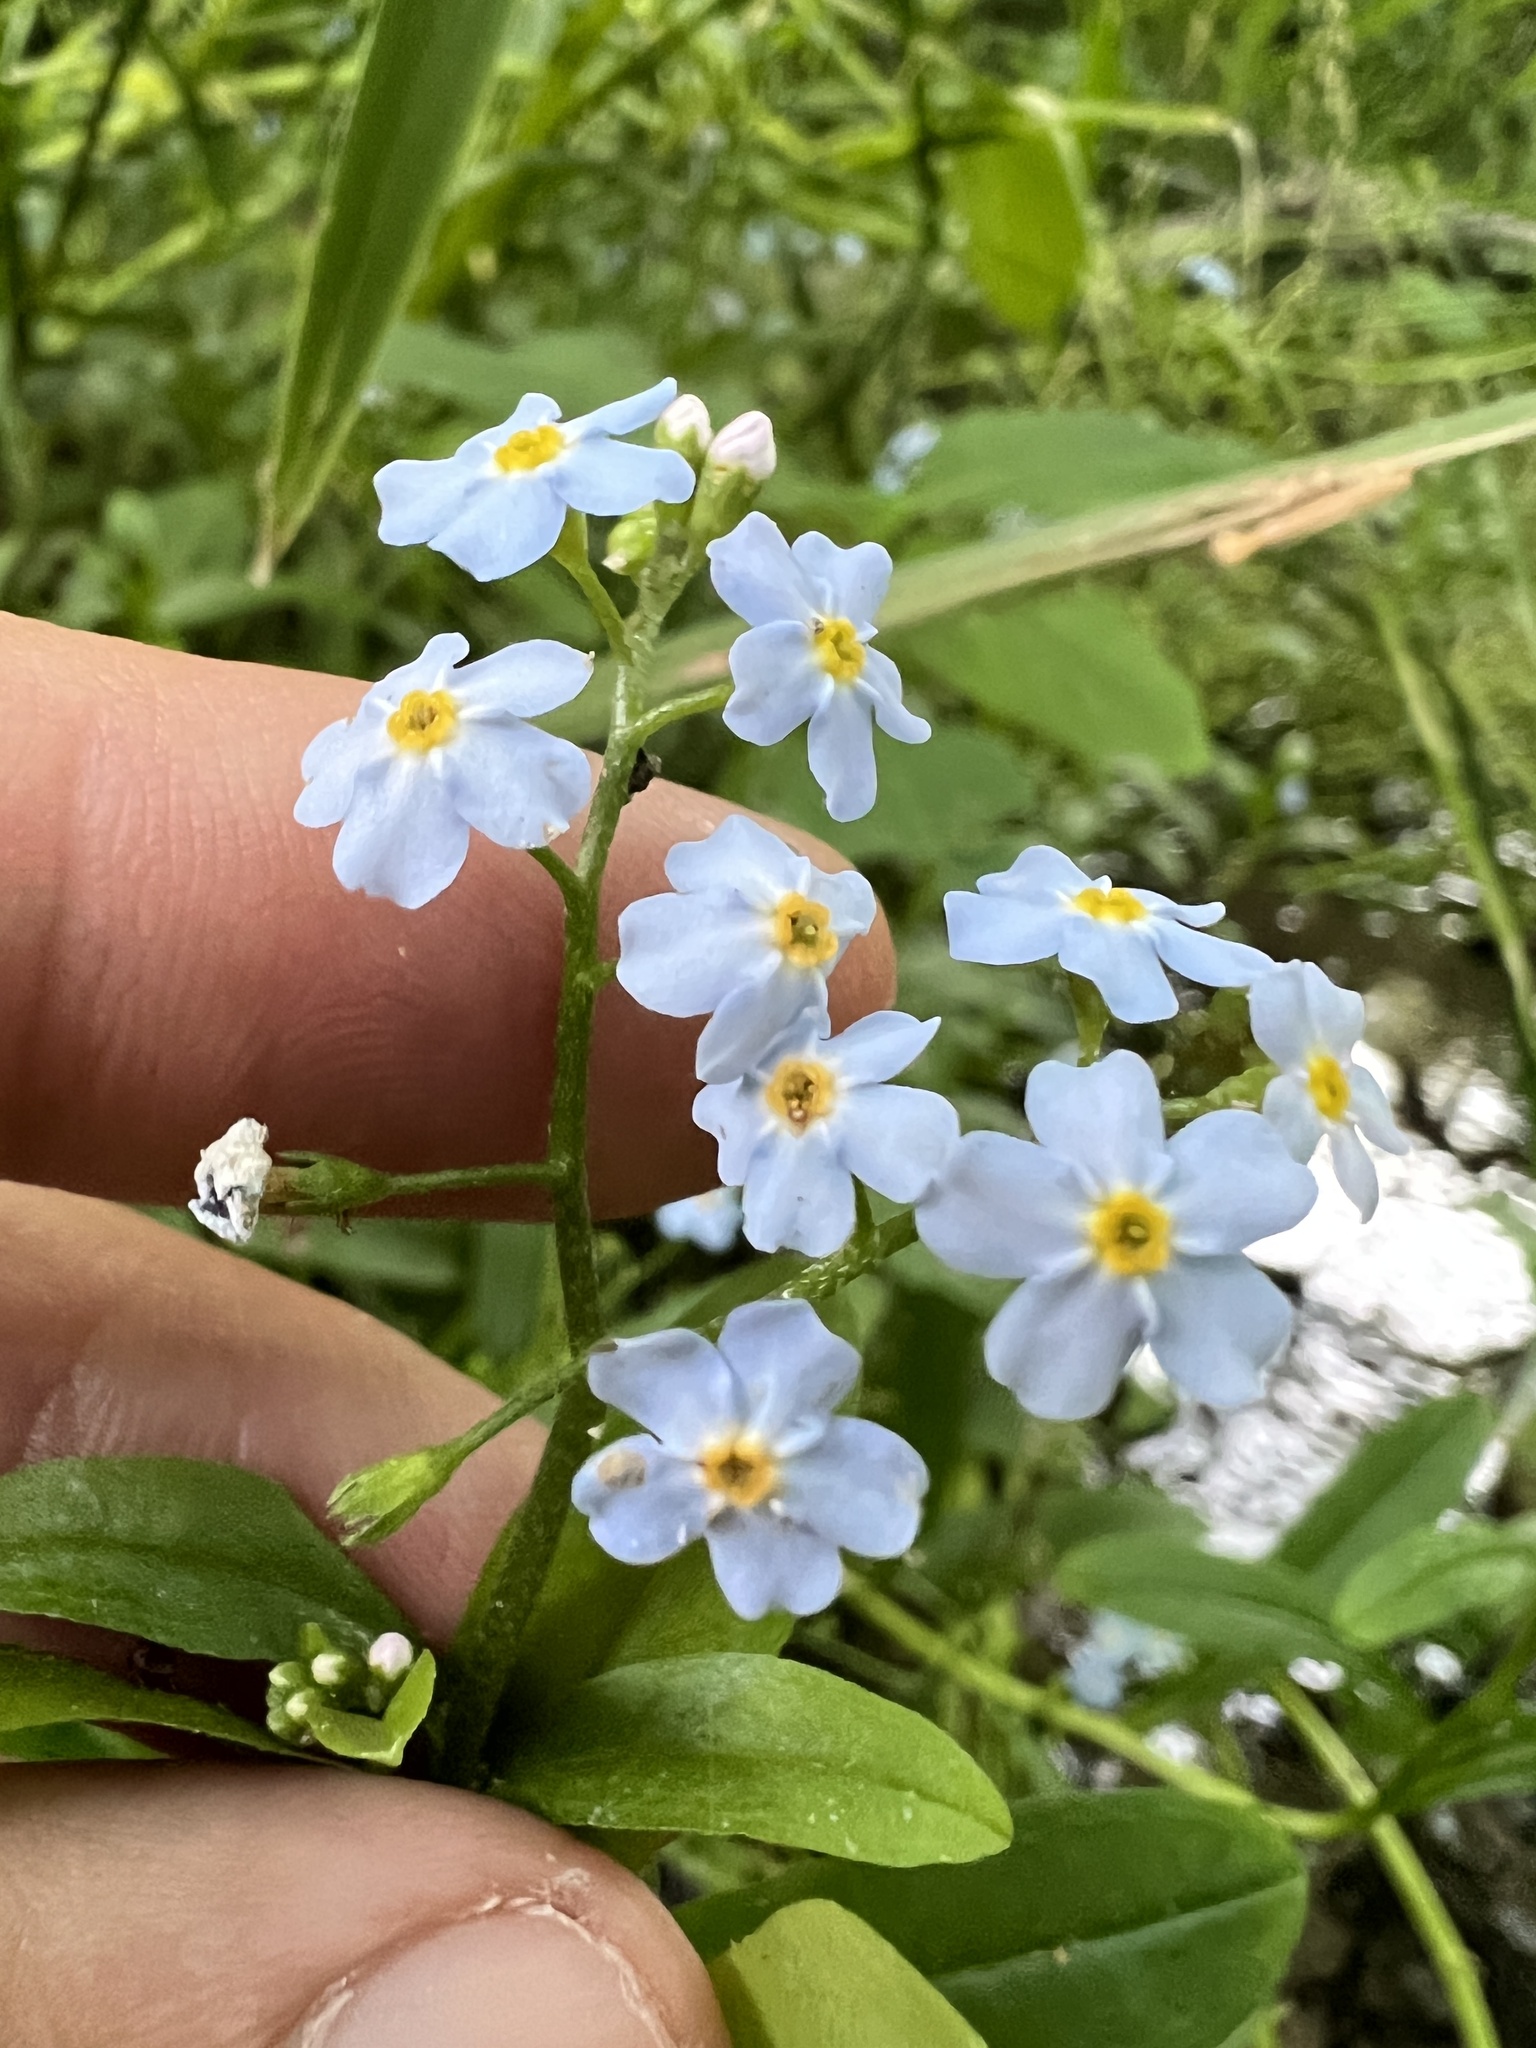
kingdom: Plantae
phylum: Tracheophyta
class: Magnoliopsida
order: Boraginales
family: Boraginaceae
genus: Myosotis
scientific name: Myosotis scorpioides
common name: Water forget-me-not
